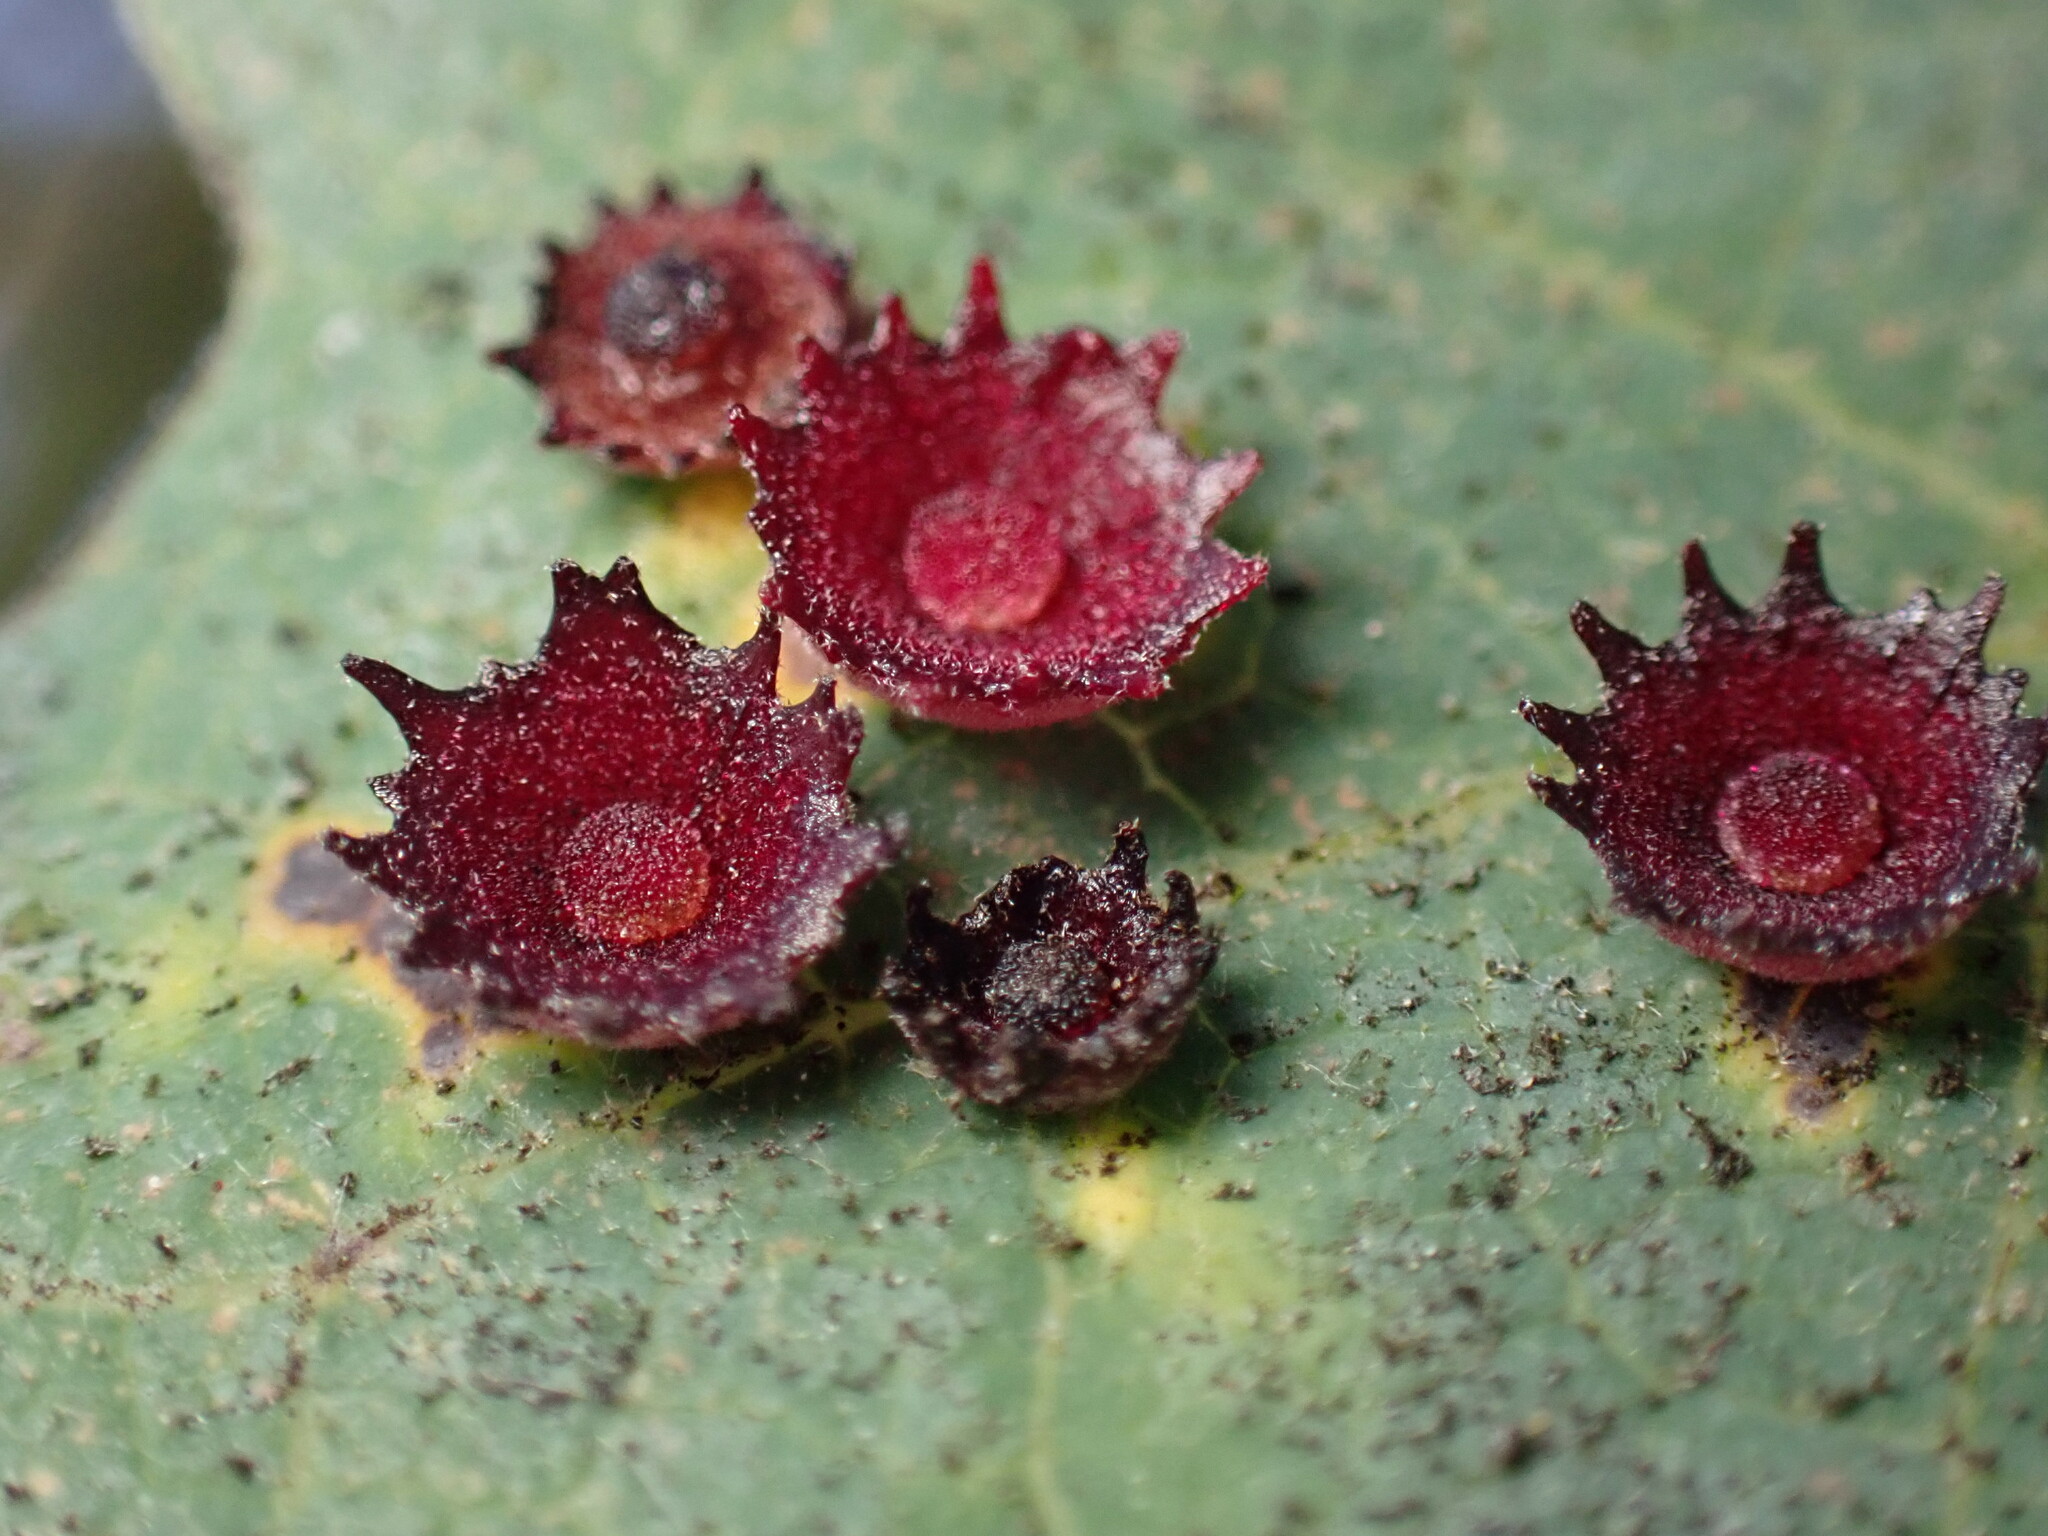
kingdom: Animalia
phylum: Arthropoda
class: Insecta
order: Hymenoptera
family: Cynipidae
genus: Andricus
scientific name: Andricus
